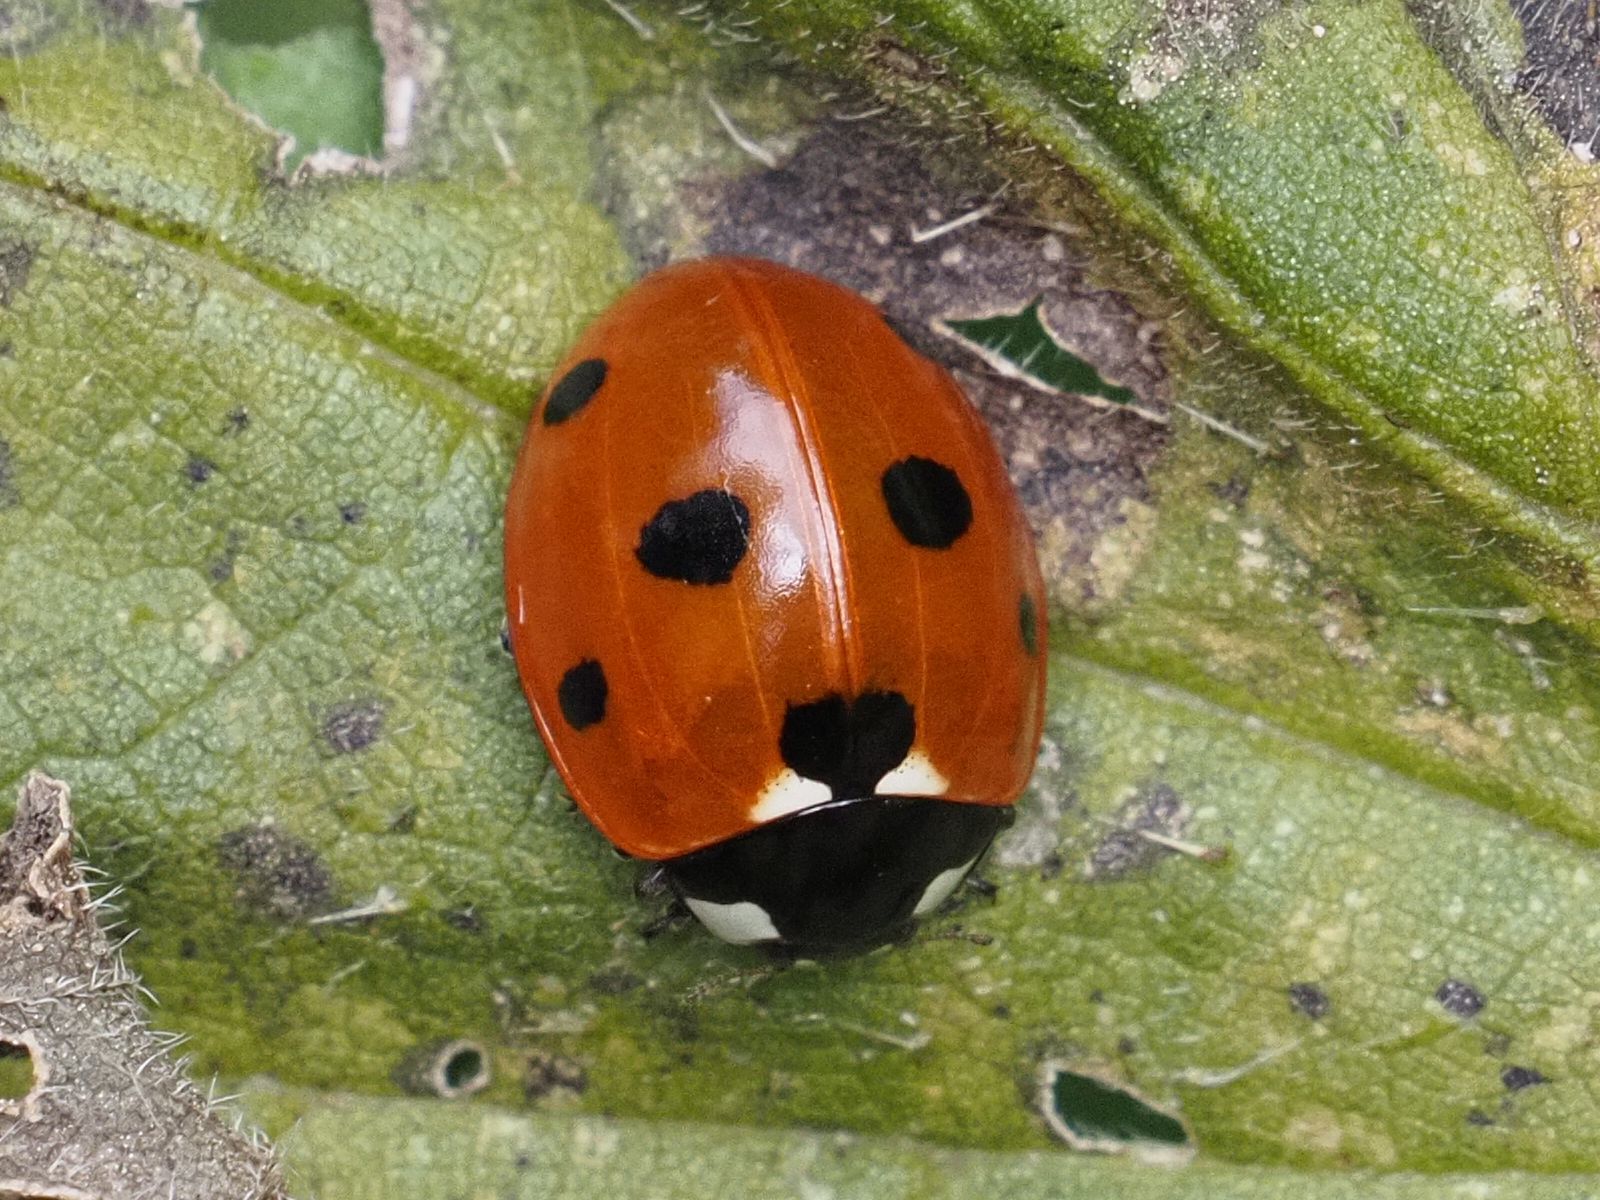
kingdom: Animalia
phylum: Arthropoda
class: Insecta
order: Coleoptera
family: Coccinellidae
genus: Coccinella
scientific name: Coccinella septempunctata
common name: Sevenspotted lady beetle
